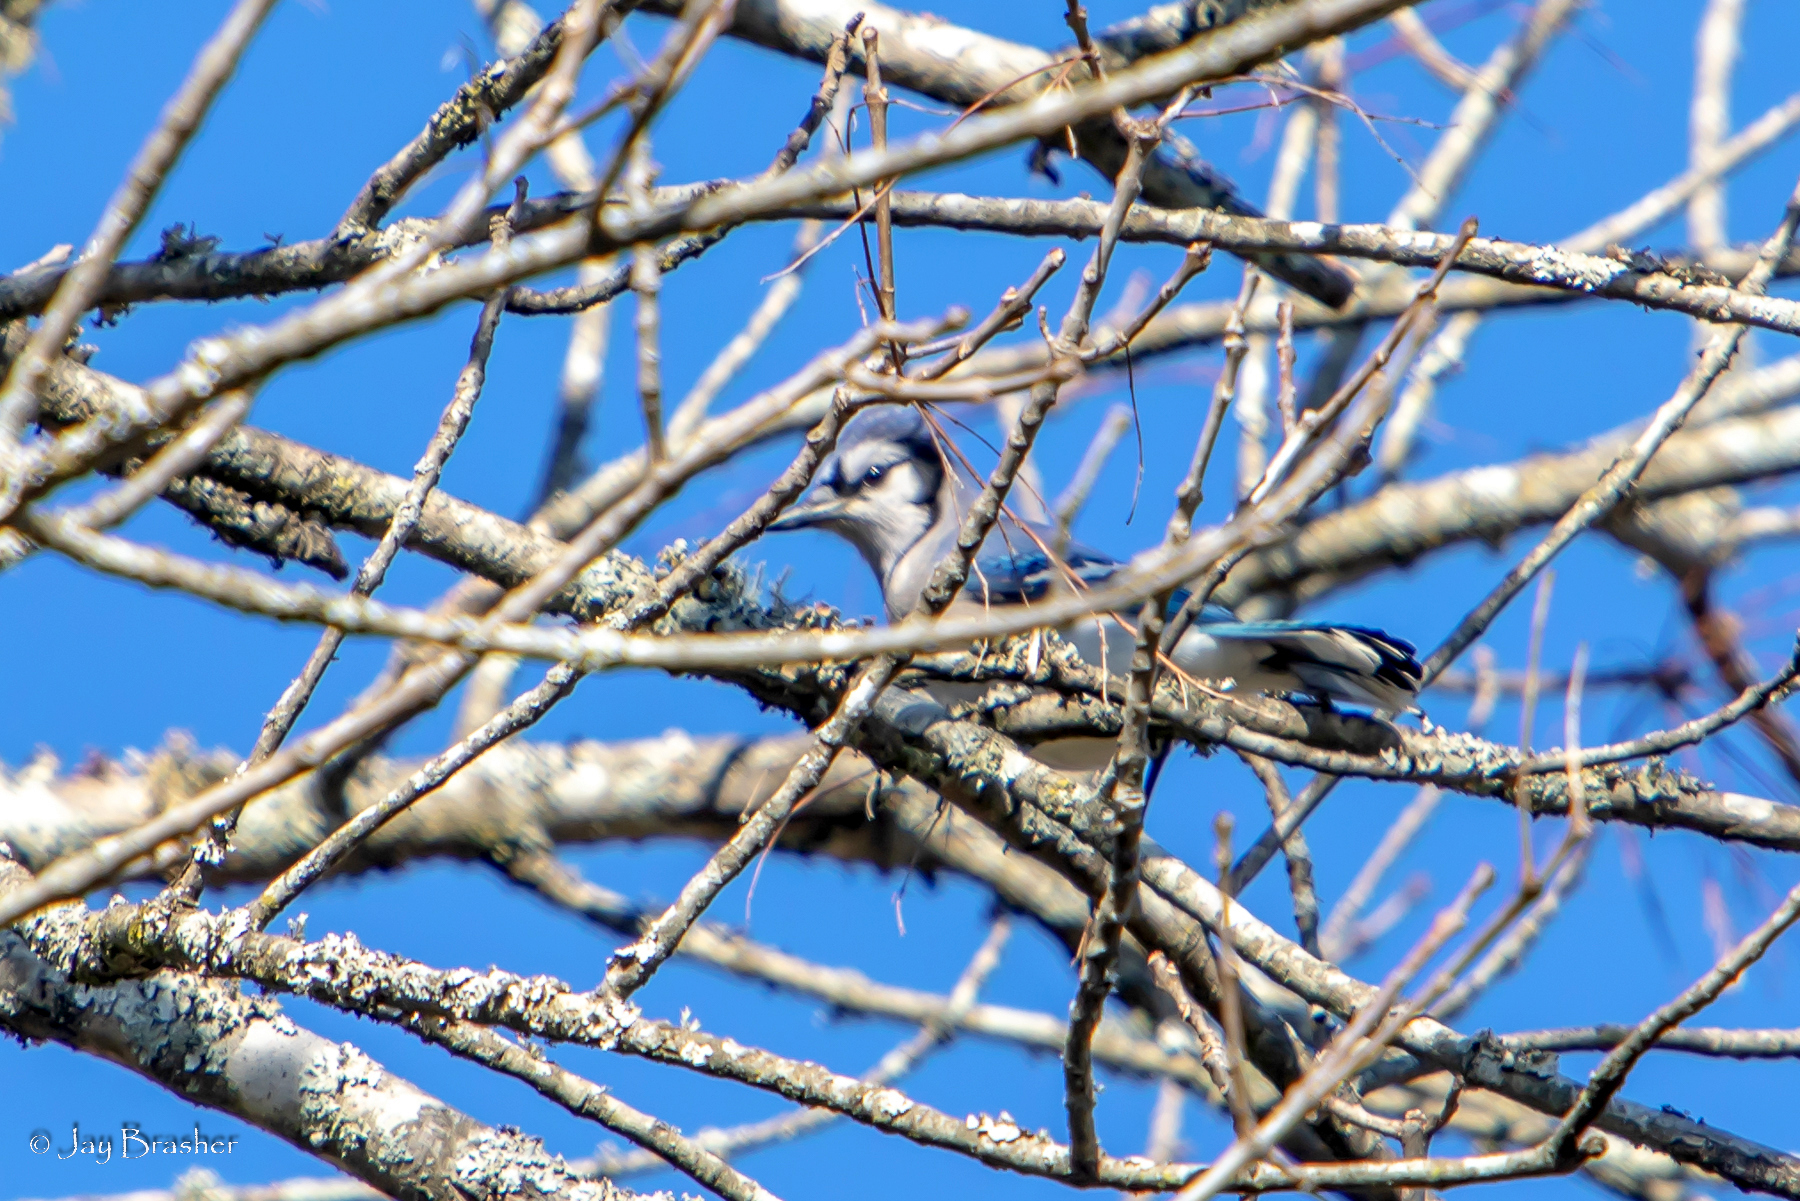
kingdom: Animalia
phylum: Chordata
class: Aves
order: Passeriformes
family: Corvidae
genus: Cyanocitta
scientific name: Cyanocitta cristata
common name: Blue jay
